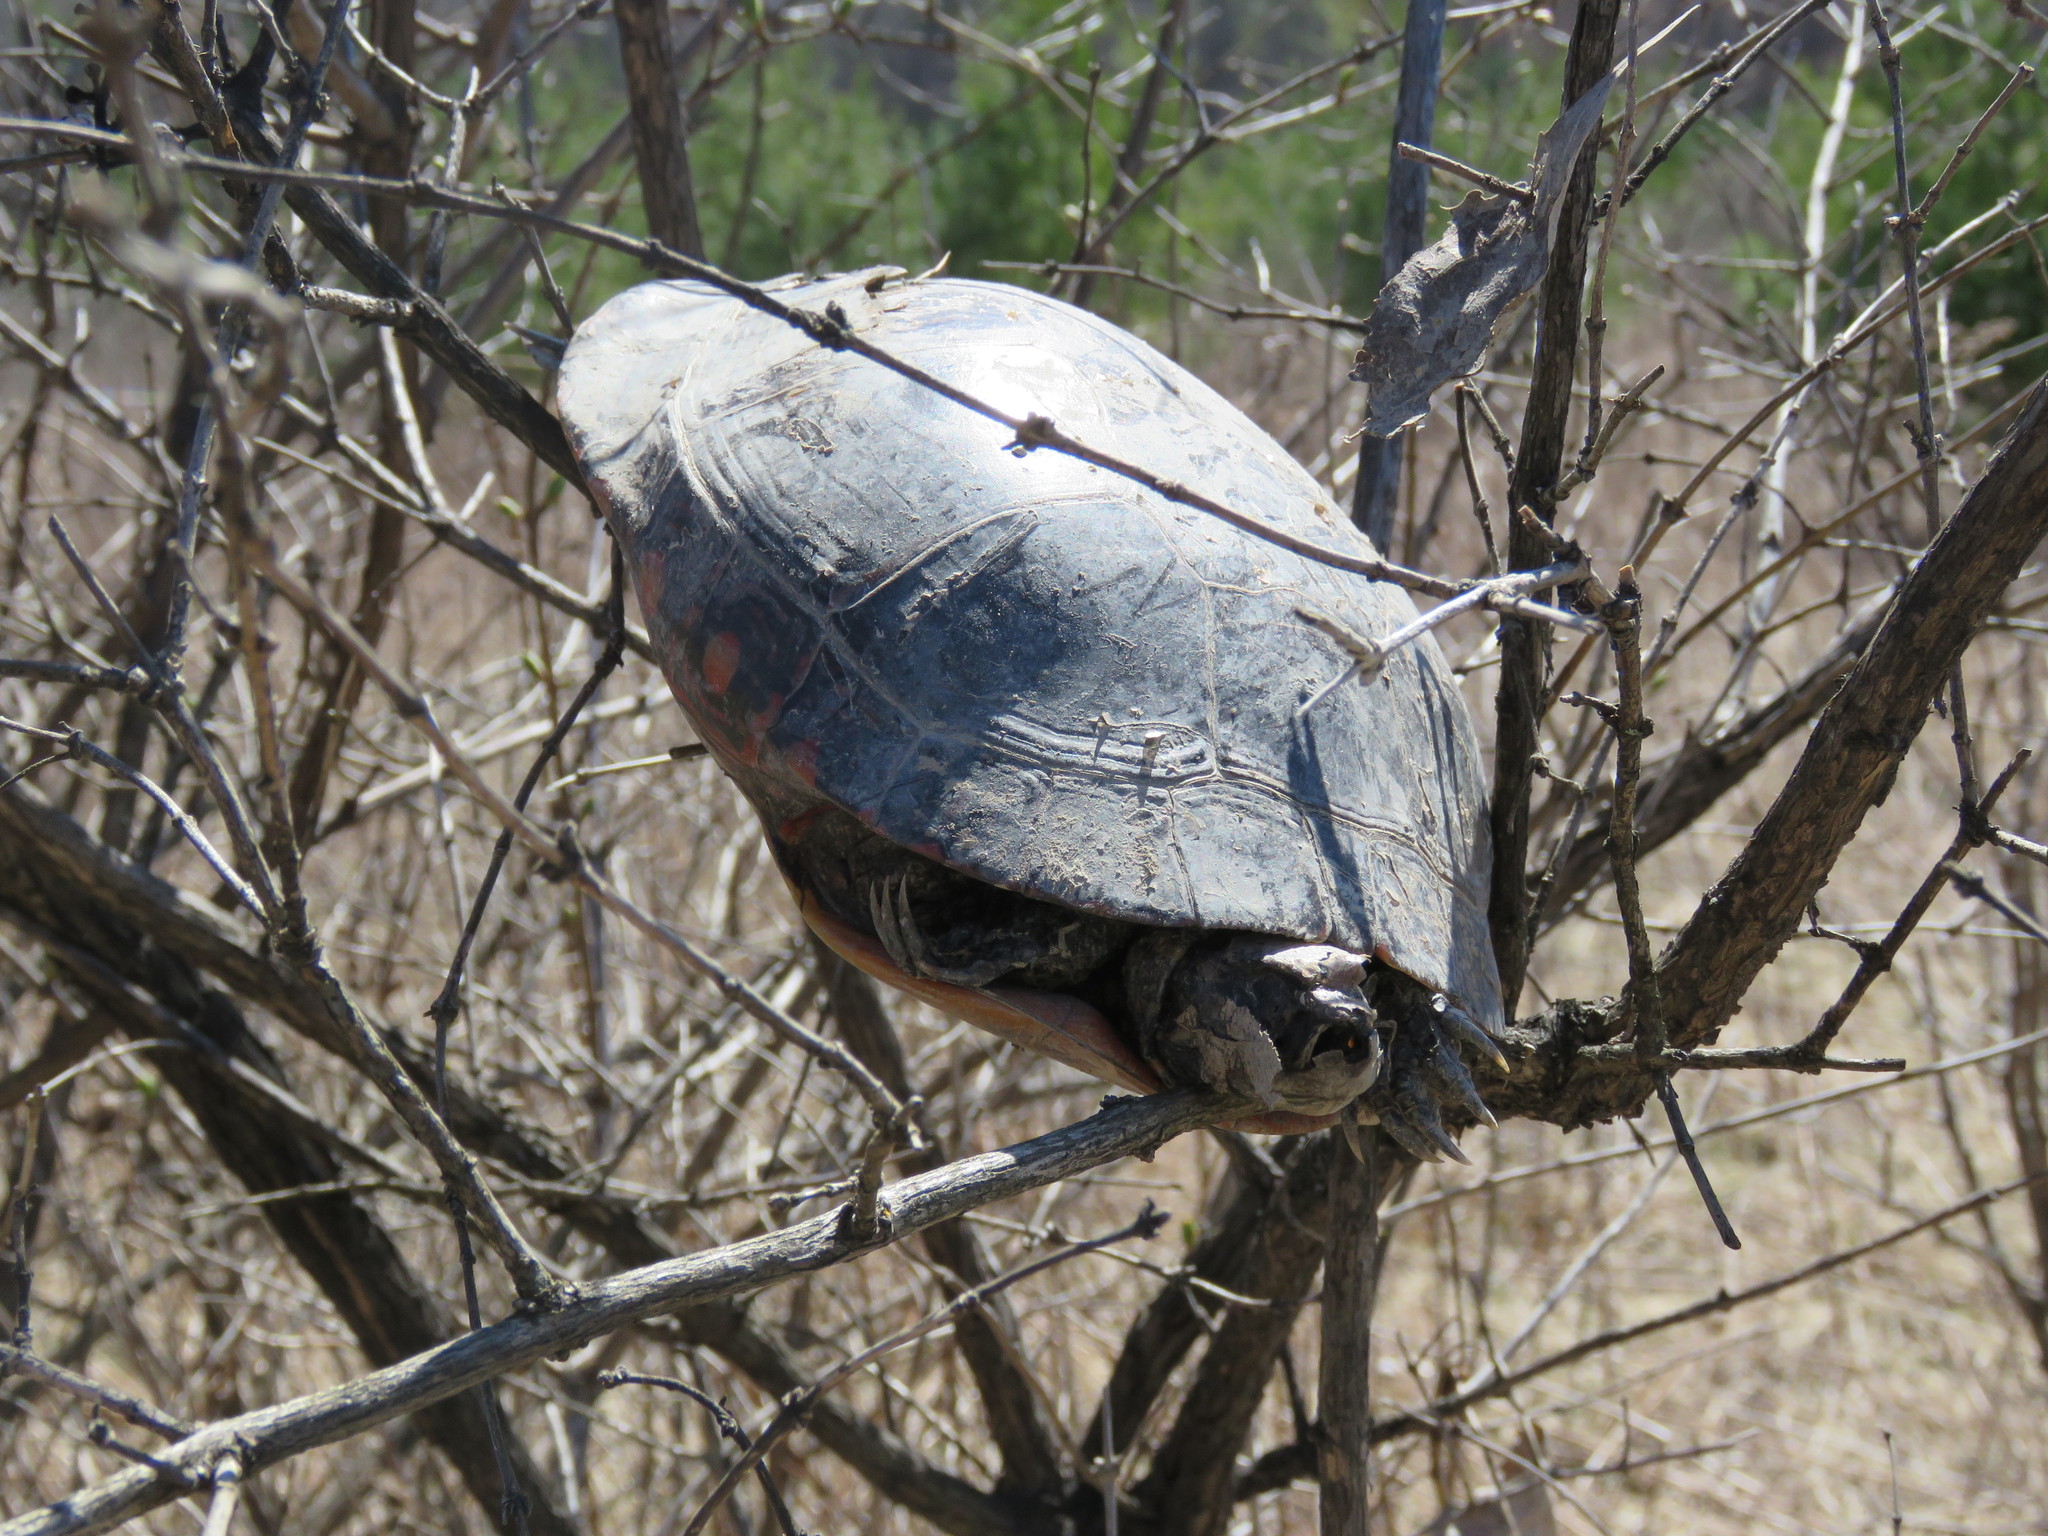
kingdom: Animalia
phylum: Chordata
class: Testudines
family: Emydidae
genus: Chrysemys
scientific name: Chrysemys picta
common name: Painted turtle
